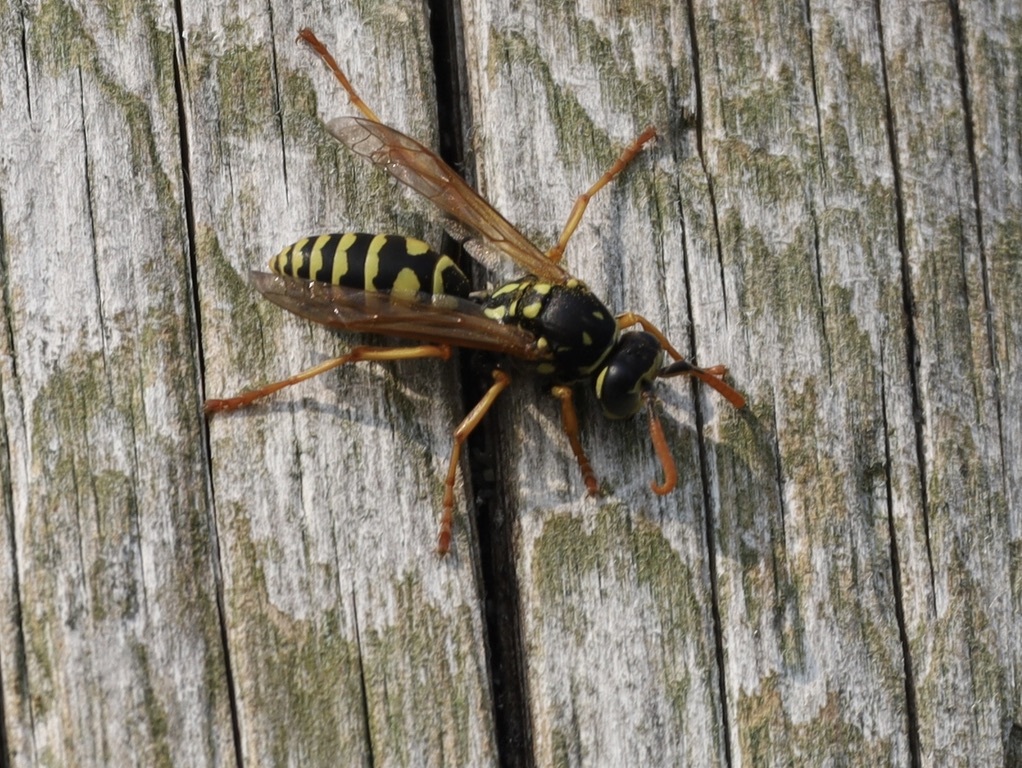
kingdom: Animalia
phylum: Arthropoda
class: Insecta
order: Hymenoptera
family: Eumenidae
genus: Polistes
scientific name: Polistes dominula
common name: Paper wasp
